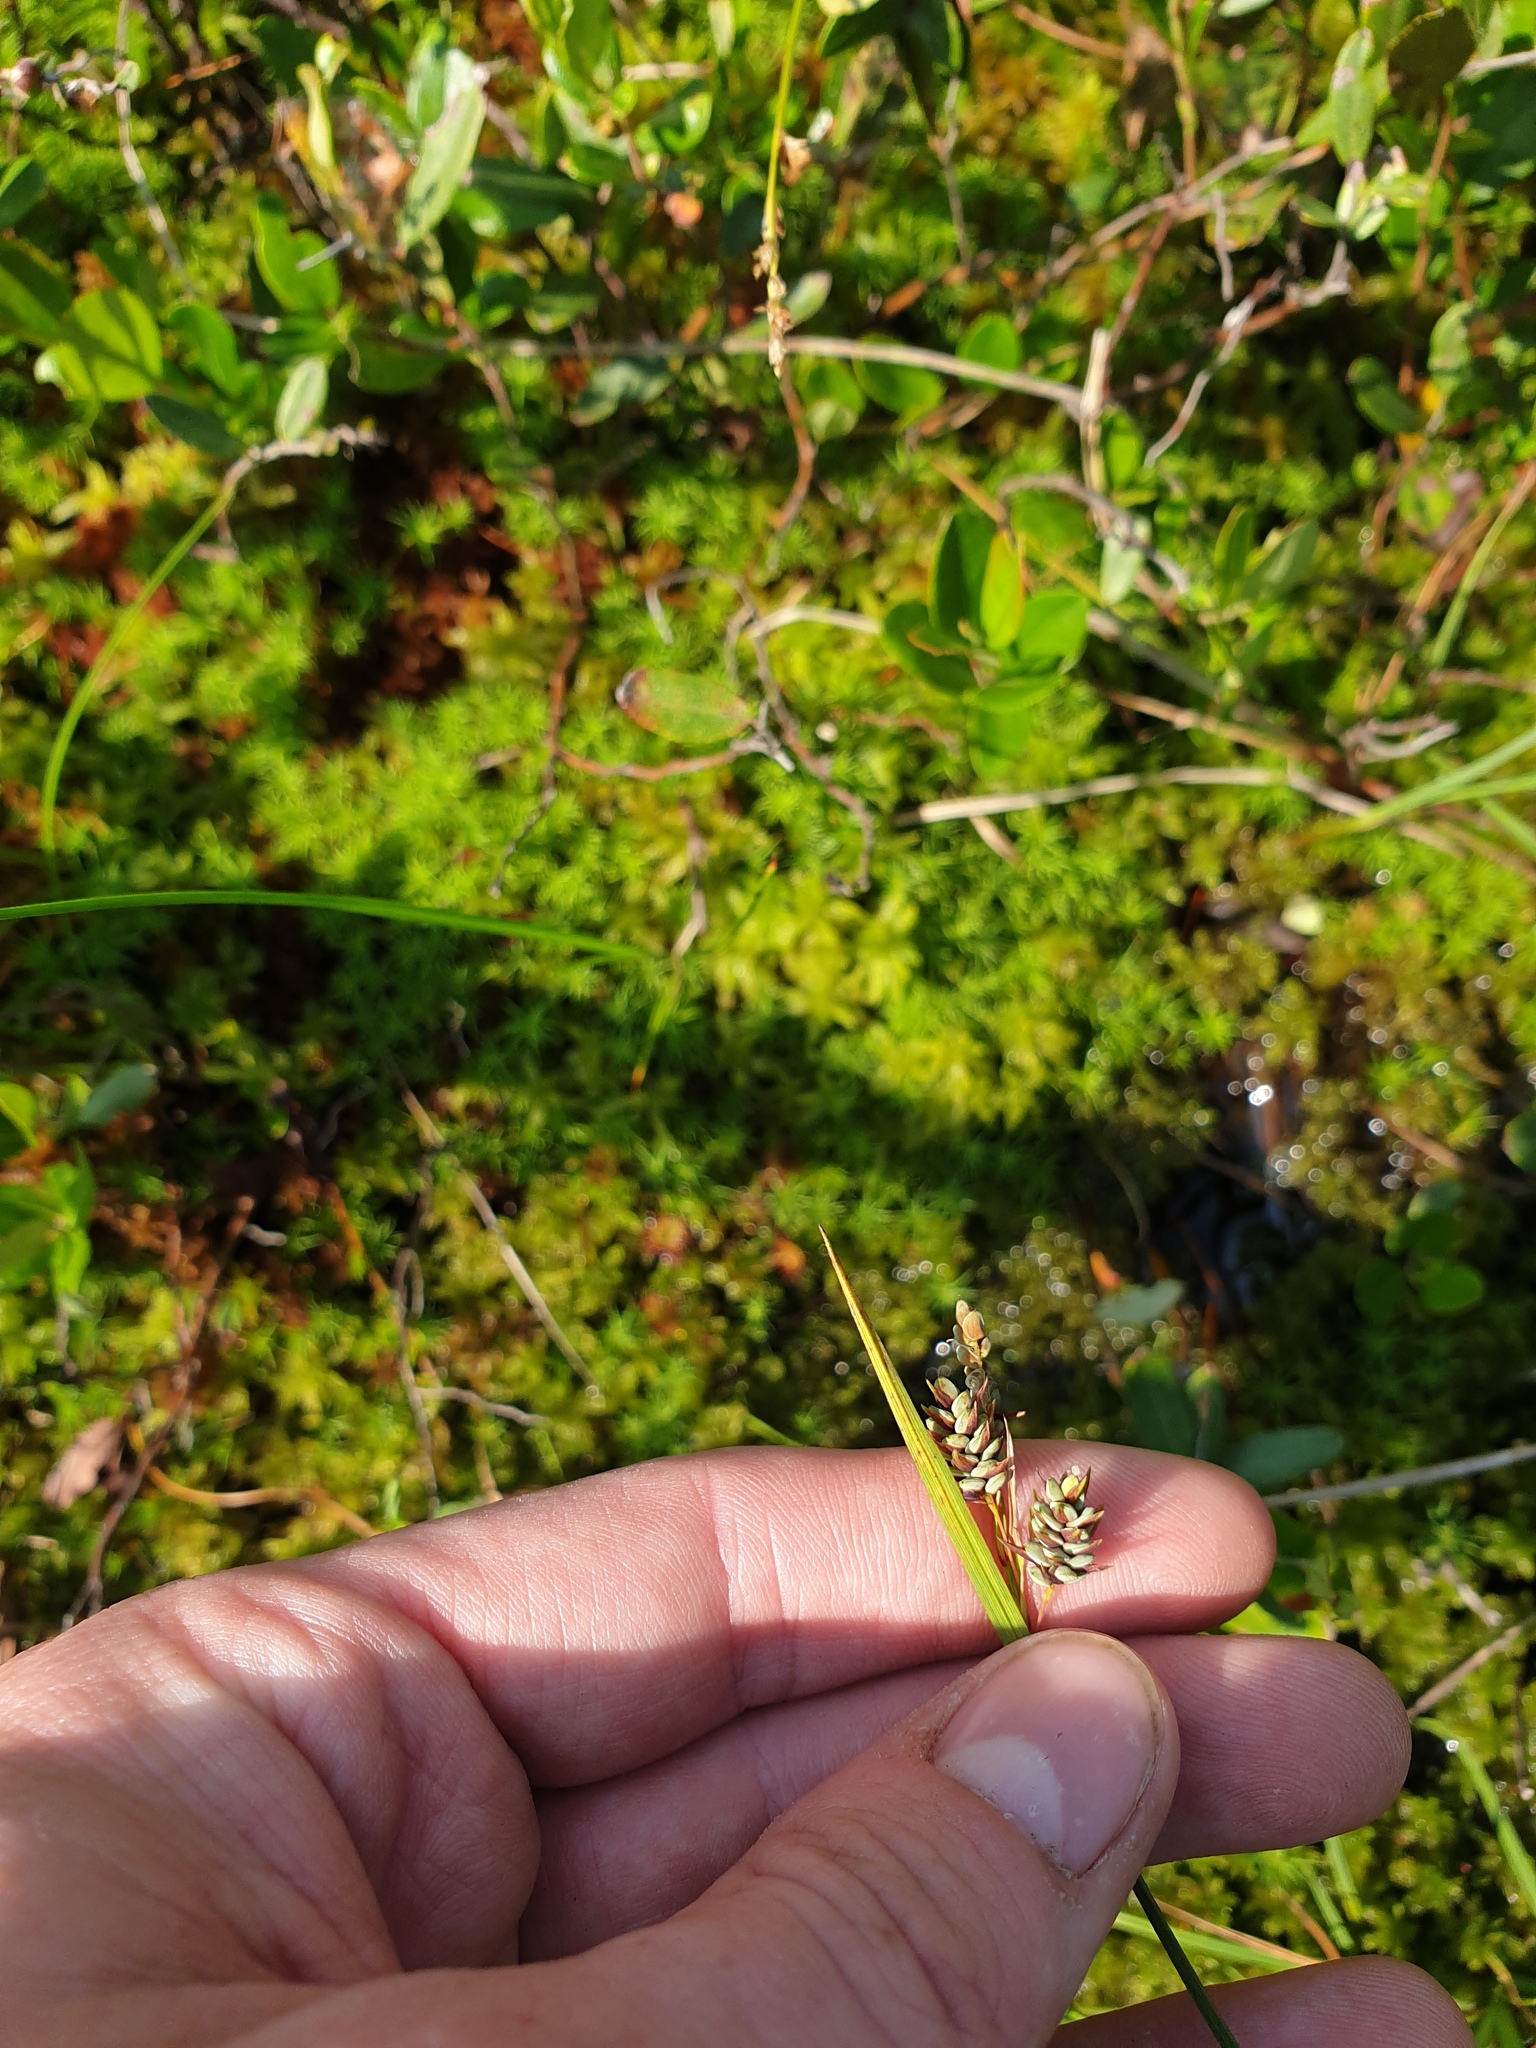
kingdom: Plantae
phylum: Tracheophyta
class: Liliopsida
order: Poales
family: Cyperaceae
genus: Carex
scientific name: Carex magellanica
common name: Bog sedge
